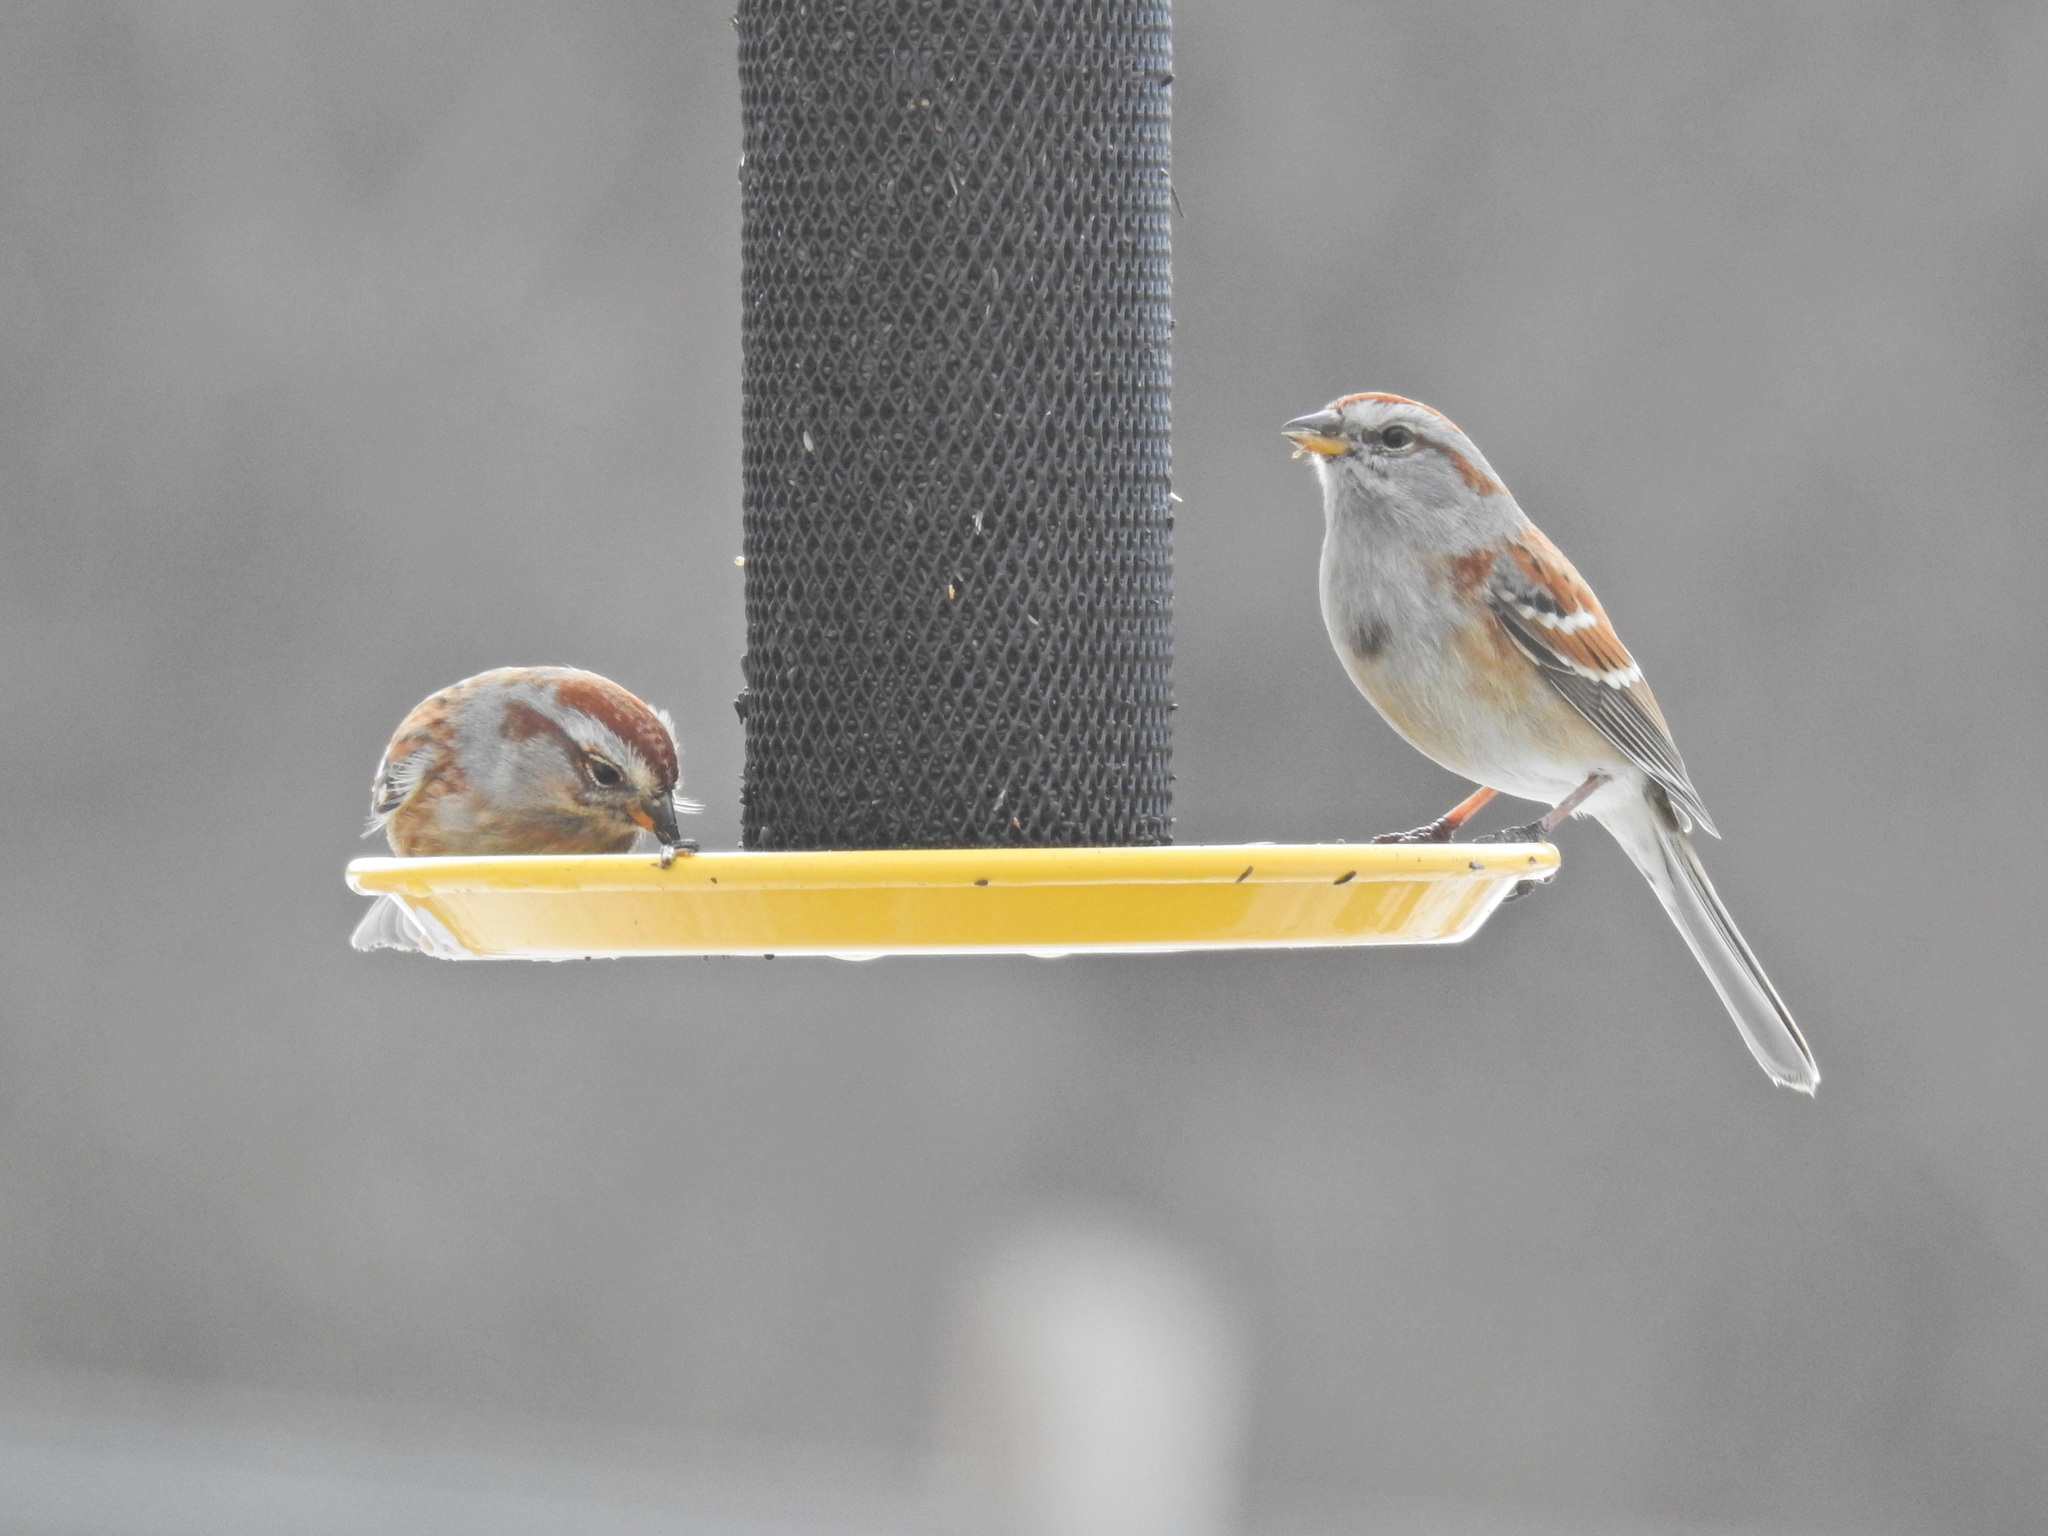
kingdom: Animalia
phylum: Chordata
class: Aves
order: Passeriformes
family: Passerellidae
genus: Spizelloides
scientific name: Spizelloides arborea
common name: American tree sparrow
